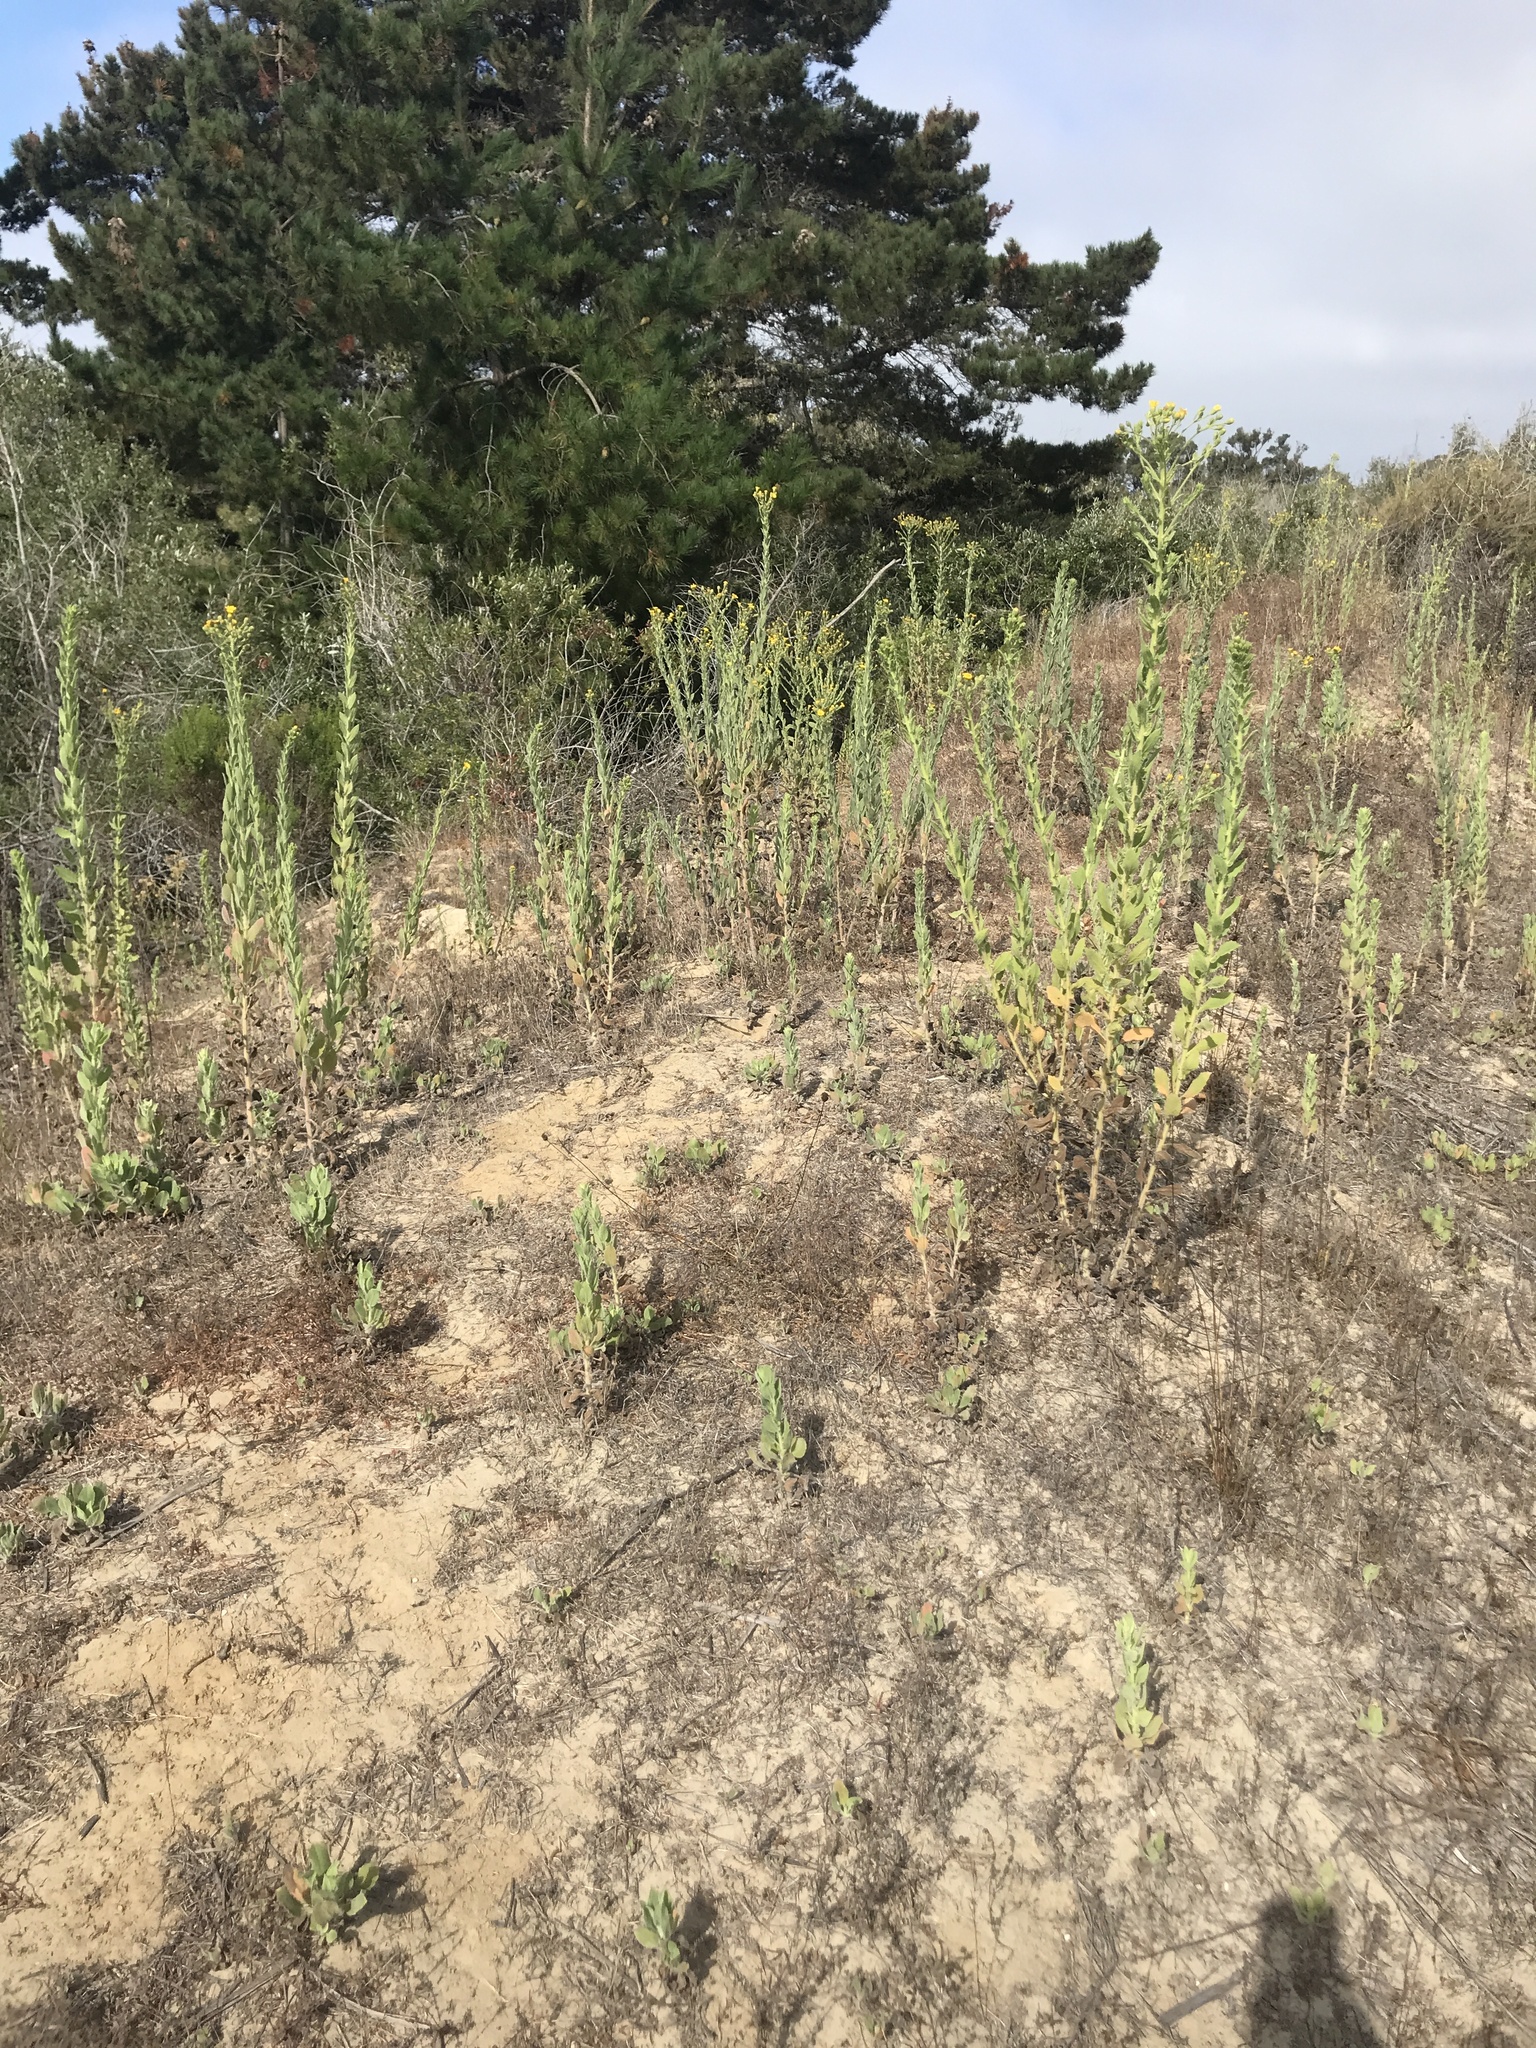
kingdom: Plantae
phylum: Tracheophyta
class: Magnoliopsida
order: Asterales
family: Asteraceae
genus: Heterotheca
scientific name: Heterotheca grandiflora
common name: Telegraphweed
